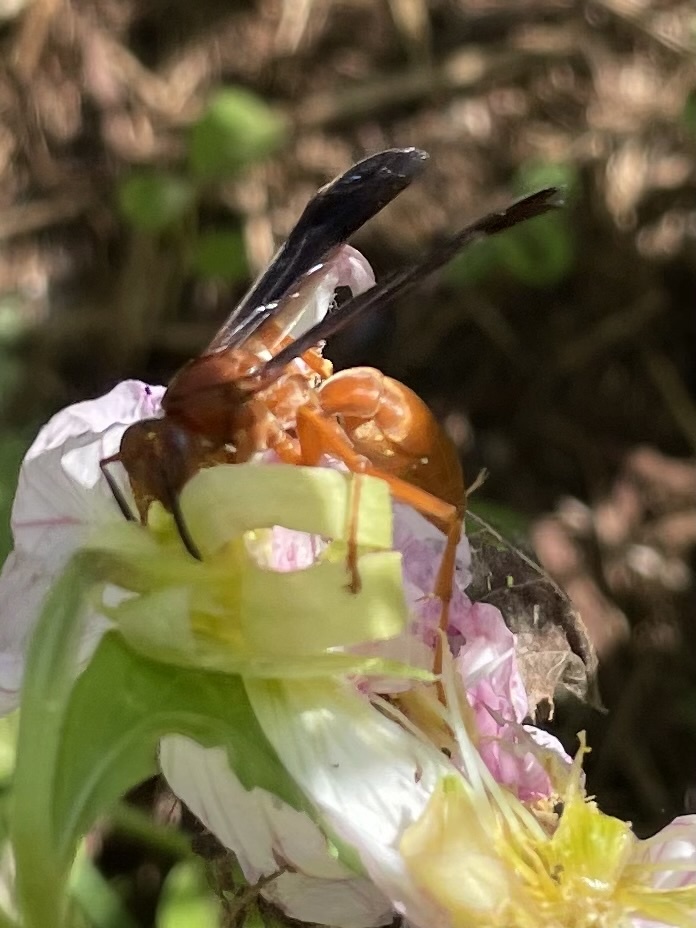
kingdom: Animalia
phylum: Arthropoda
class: Insecta
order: Hymenoptera
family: Eumenidae
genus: Polistes
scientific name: Polistes carolina
